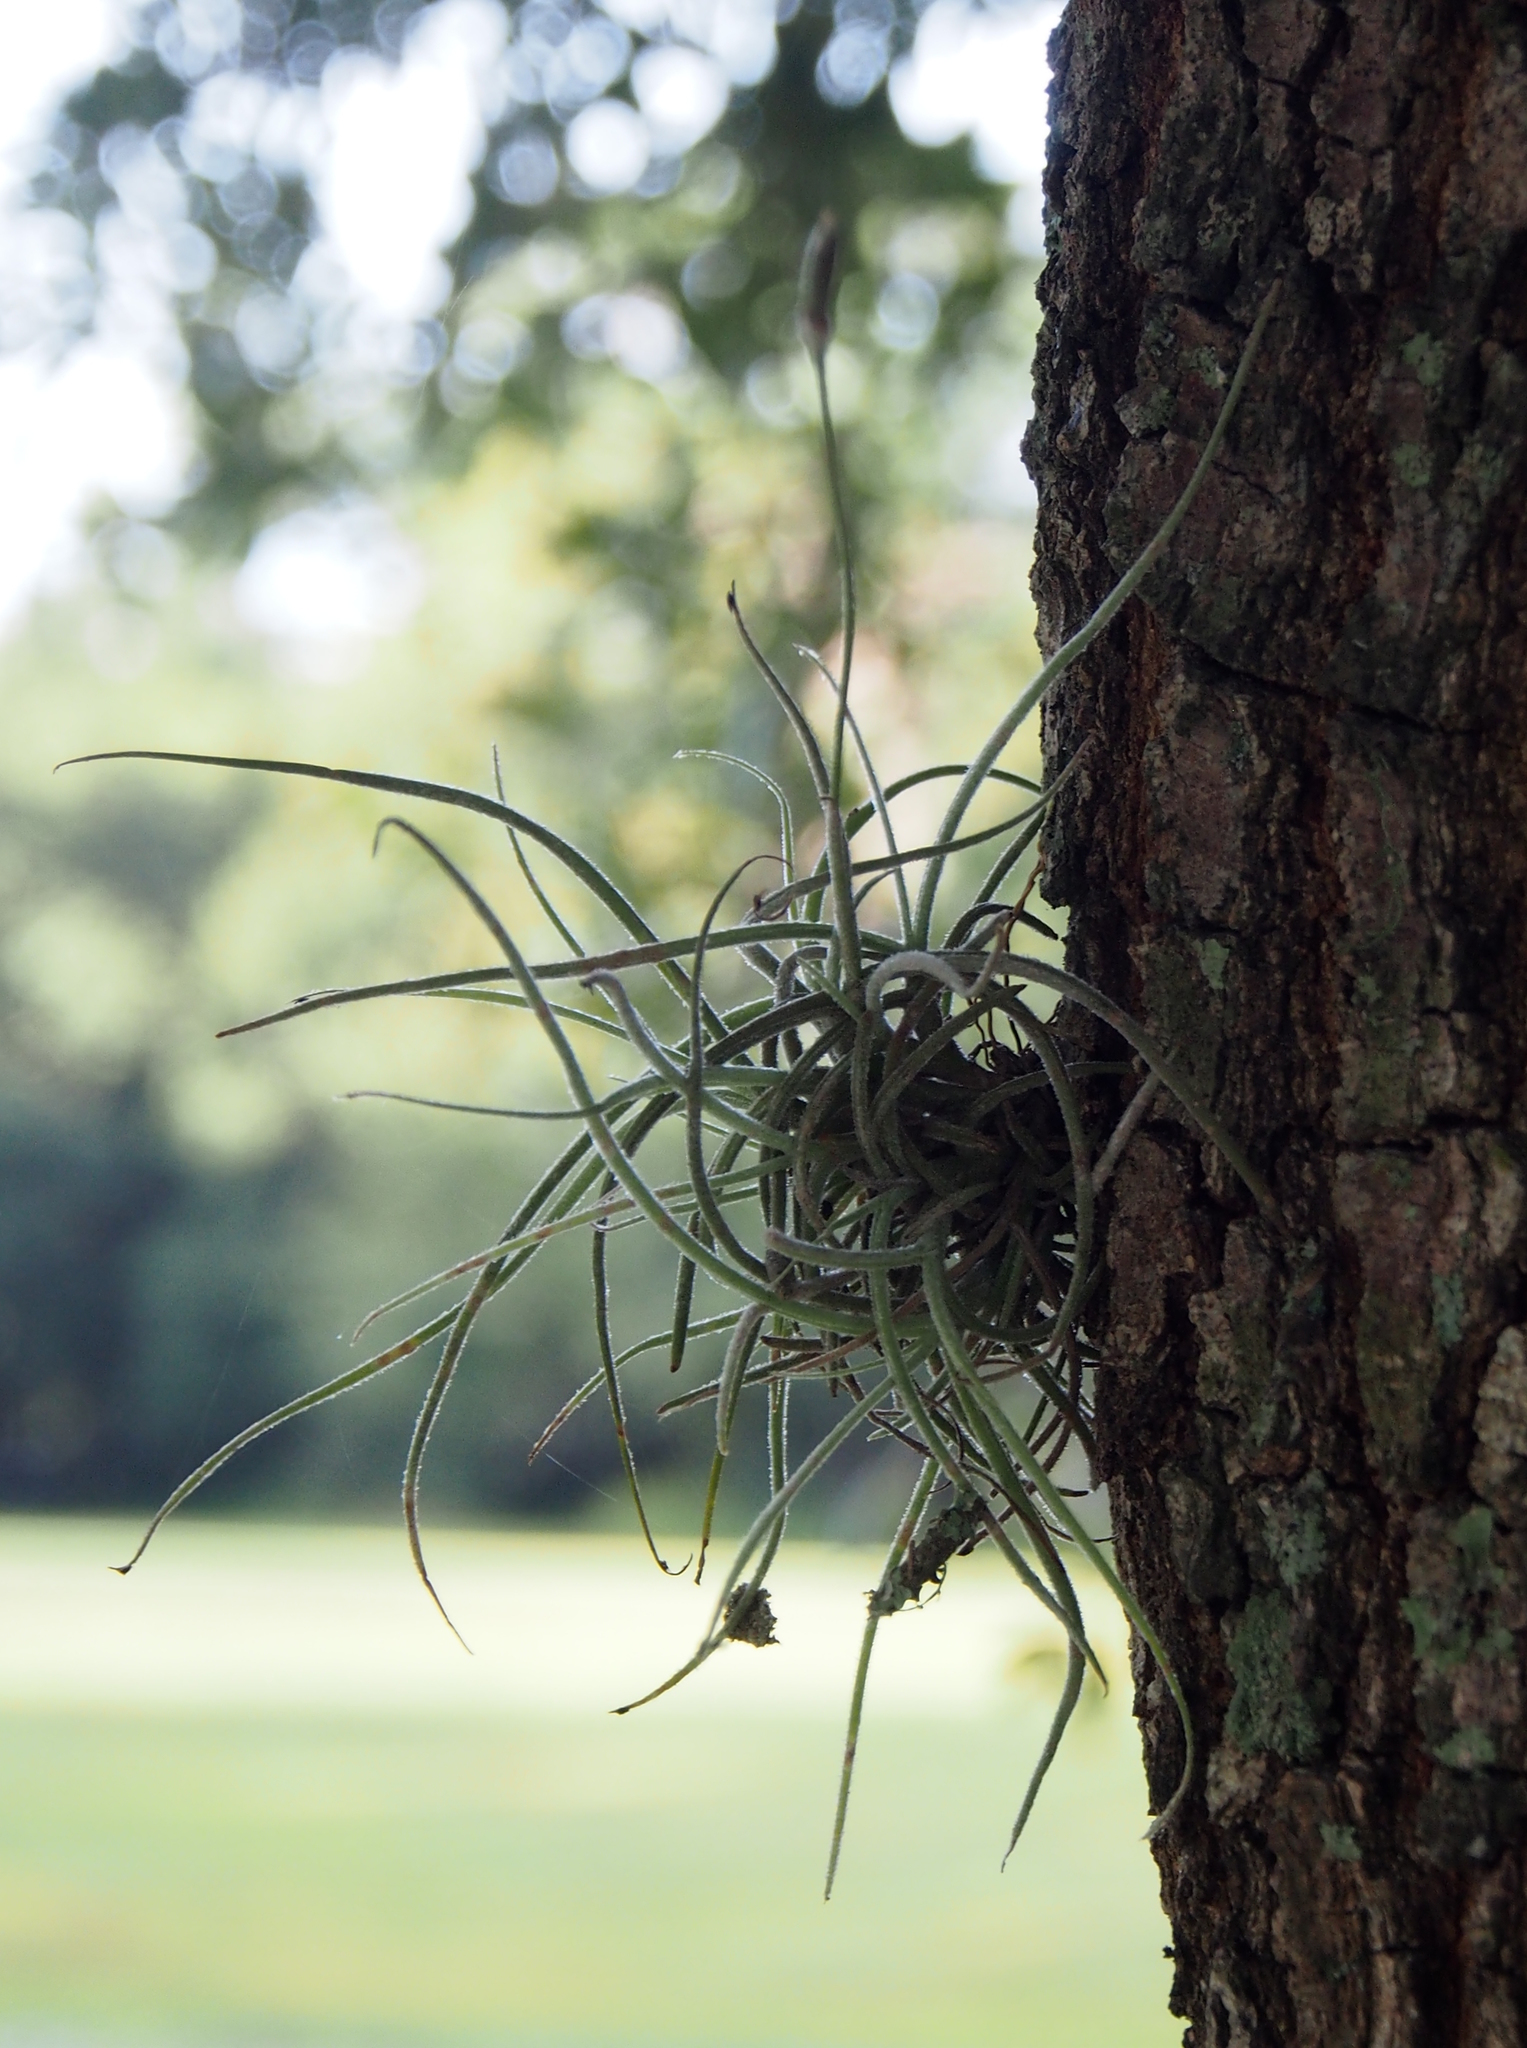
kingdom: Plantae
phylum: Tracheophyta
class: Liliopsida
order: Poales
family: Bromeliaceae
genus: Tillandsia
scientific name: Tillandsia recurvata
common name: Small ballmoss
